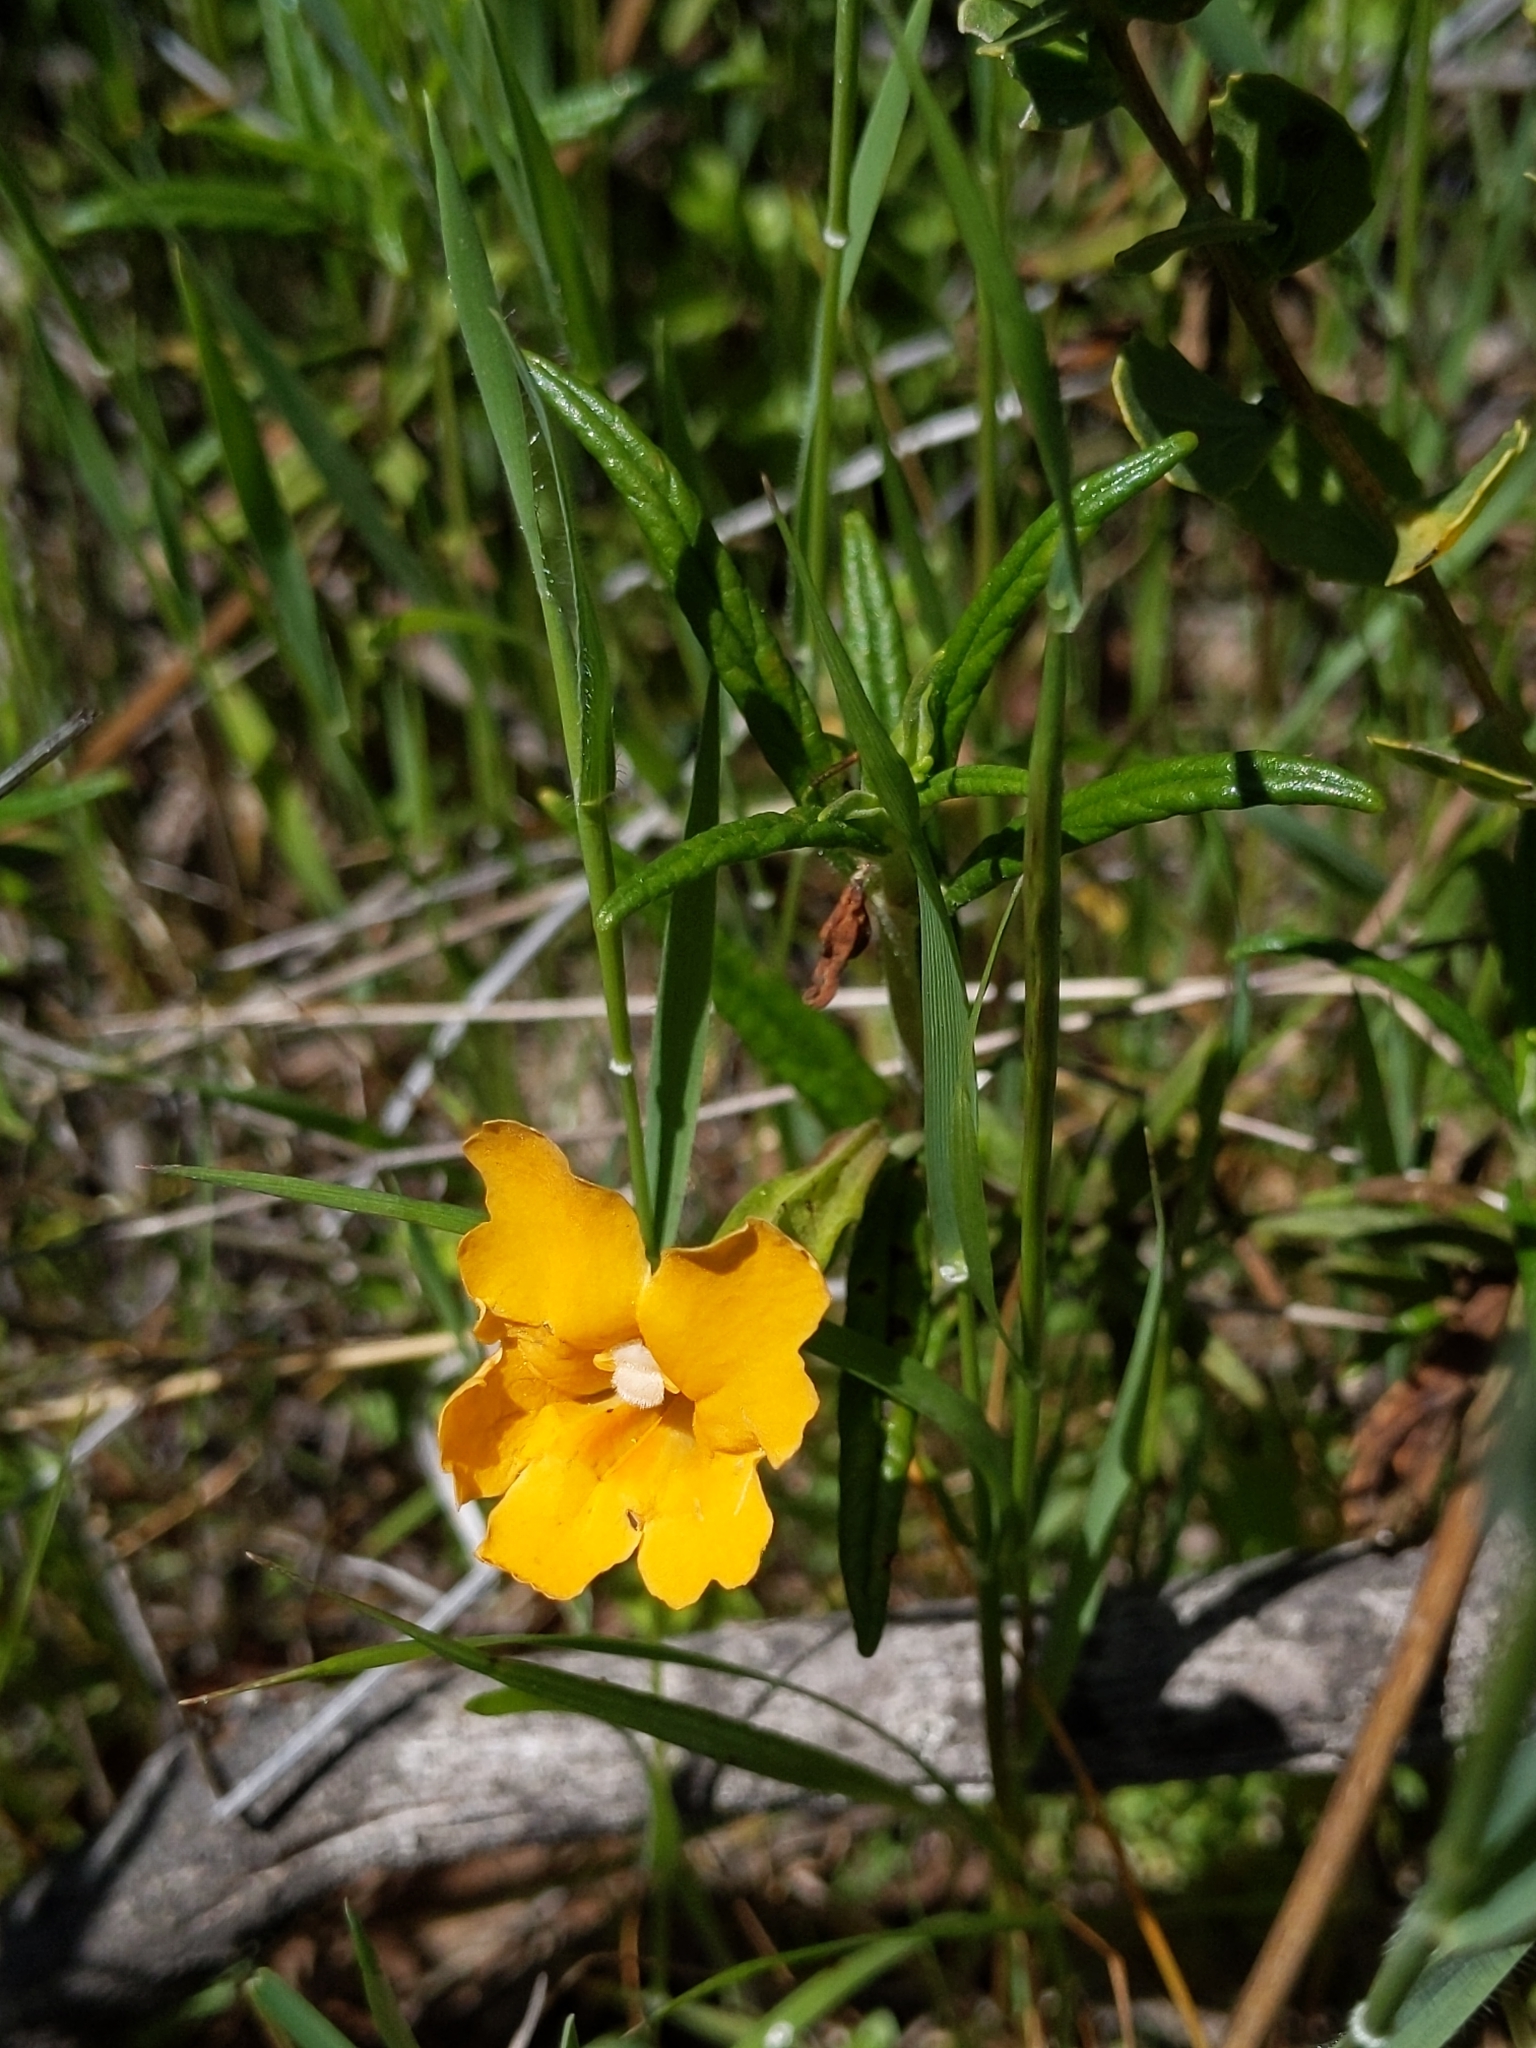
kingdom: Plantae
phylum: Tracheophyta
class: Magnoliopsida
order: Lamiales
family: Phrymaceae
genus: Diplacus
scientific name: Diplacus aurantiacus
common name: Bush monkey-flower
